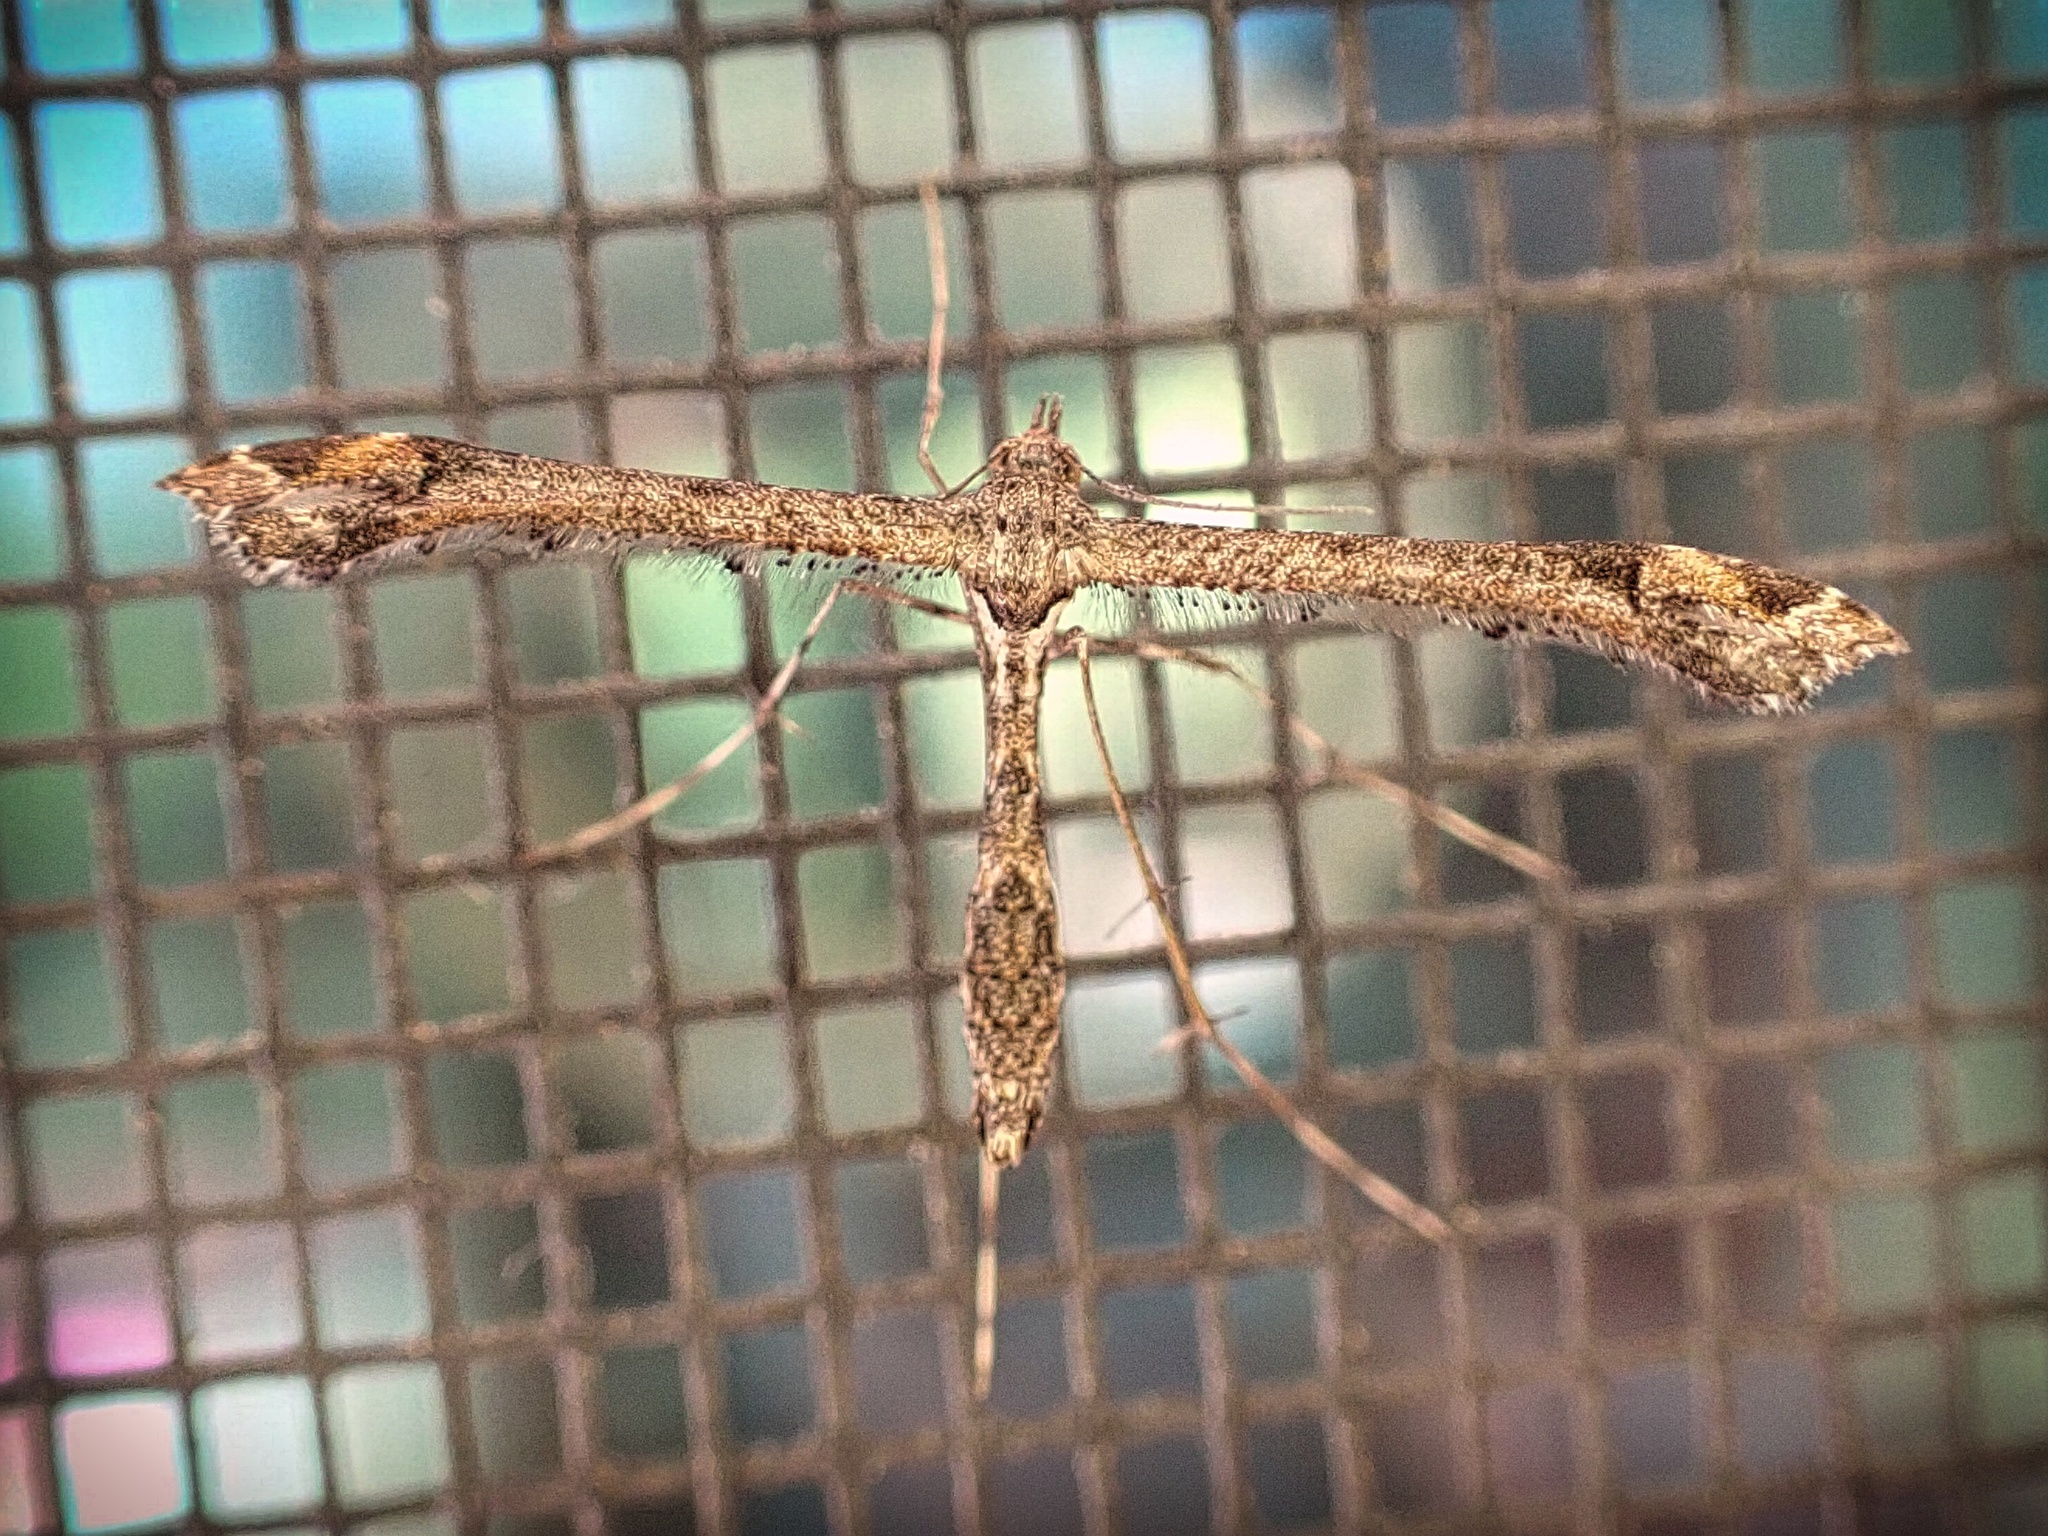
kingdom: Animalia
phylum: Arthropoda
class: Insecta
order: Lepidoptera
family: Pterophoridae
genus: Anstenoptilia
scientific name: Anstenoptilia marmarodactyla
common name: Moth
